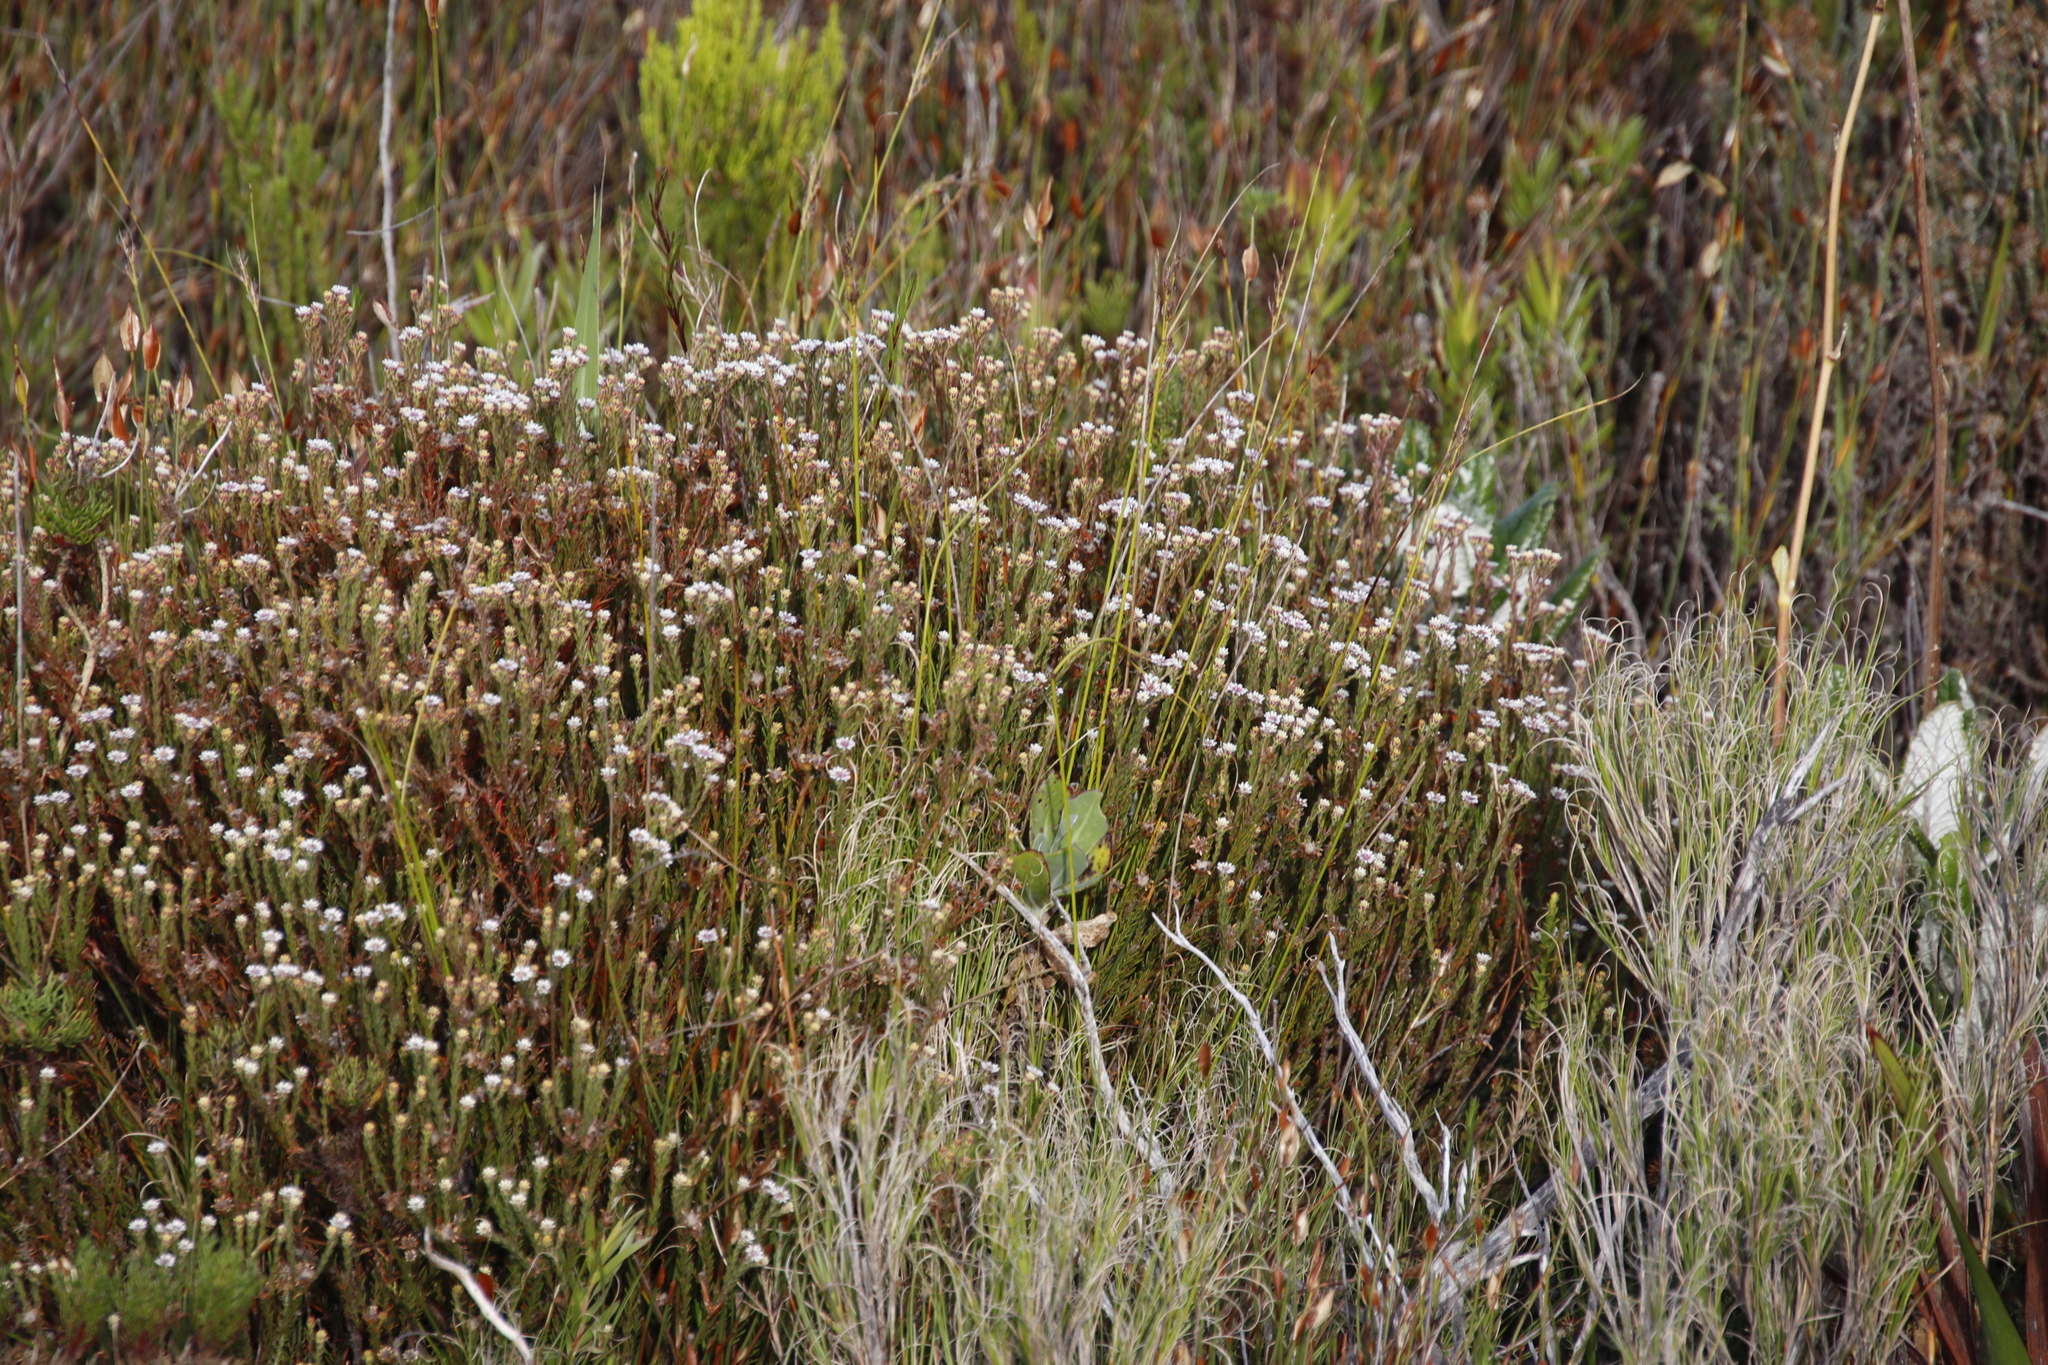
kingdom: Plantae
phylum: Tracheophyta
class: Magnoliopsida
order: Bruniales
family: Bruniaceae
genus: Staavia
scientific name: Staavia radiata
